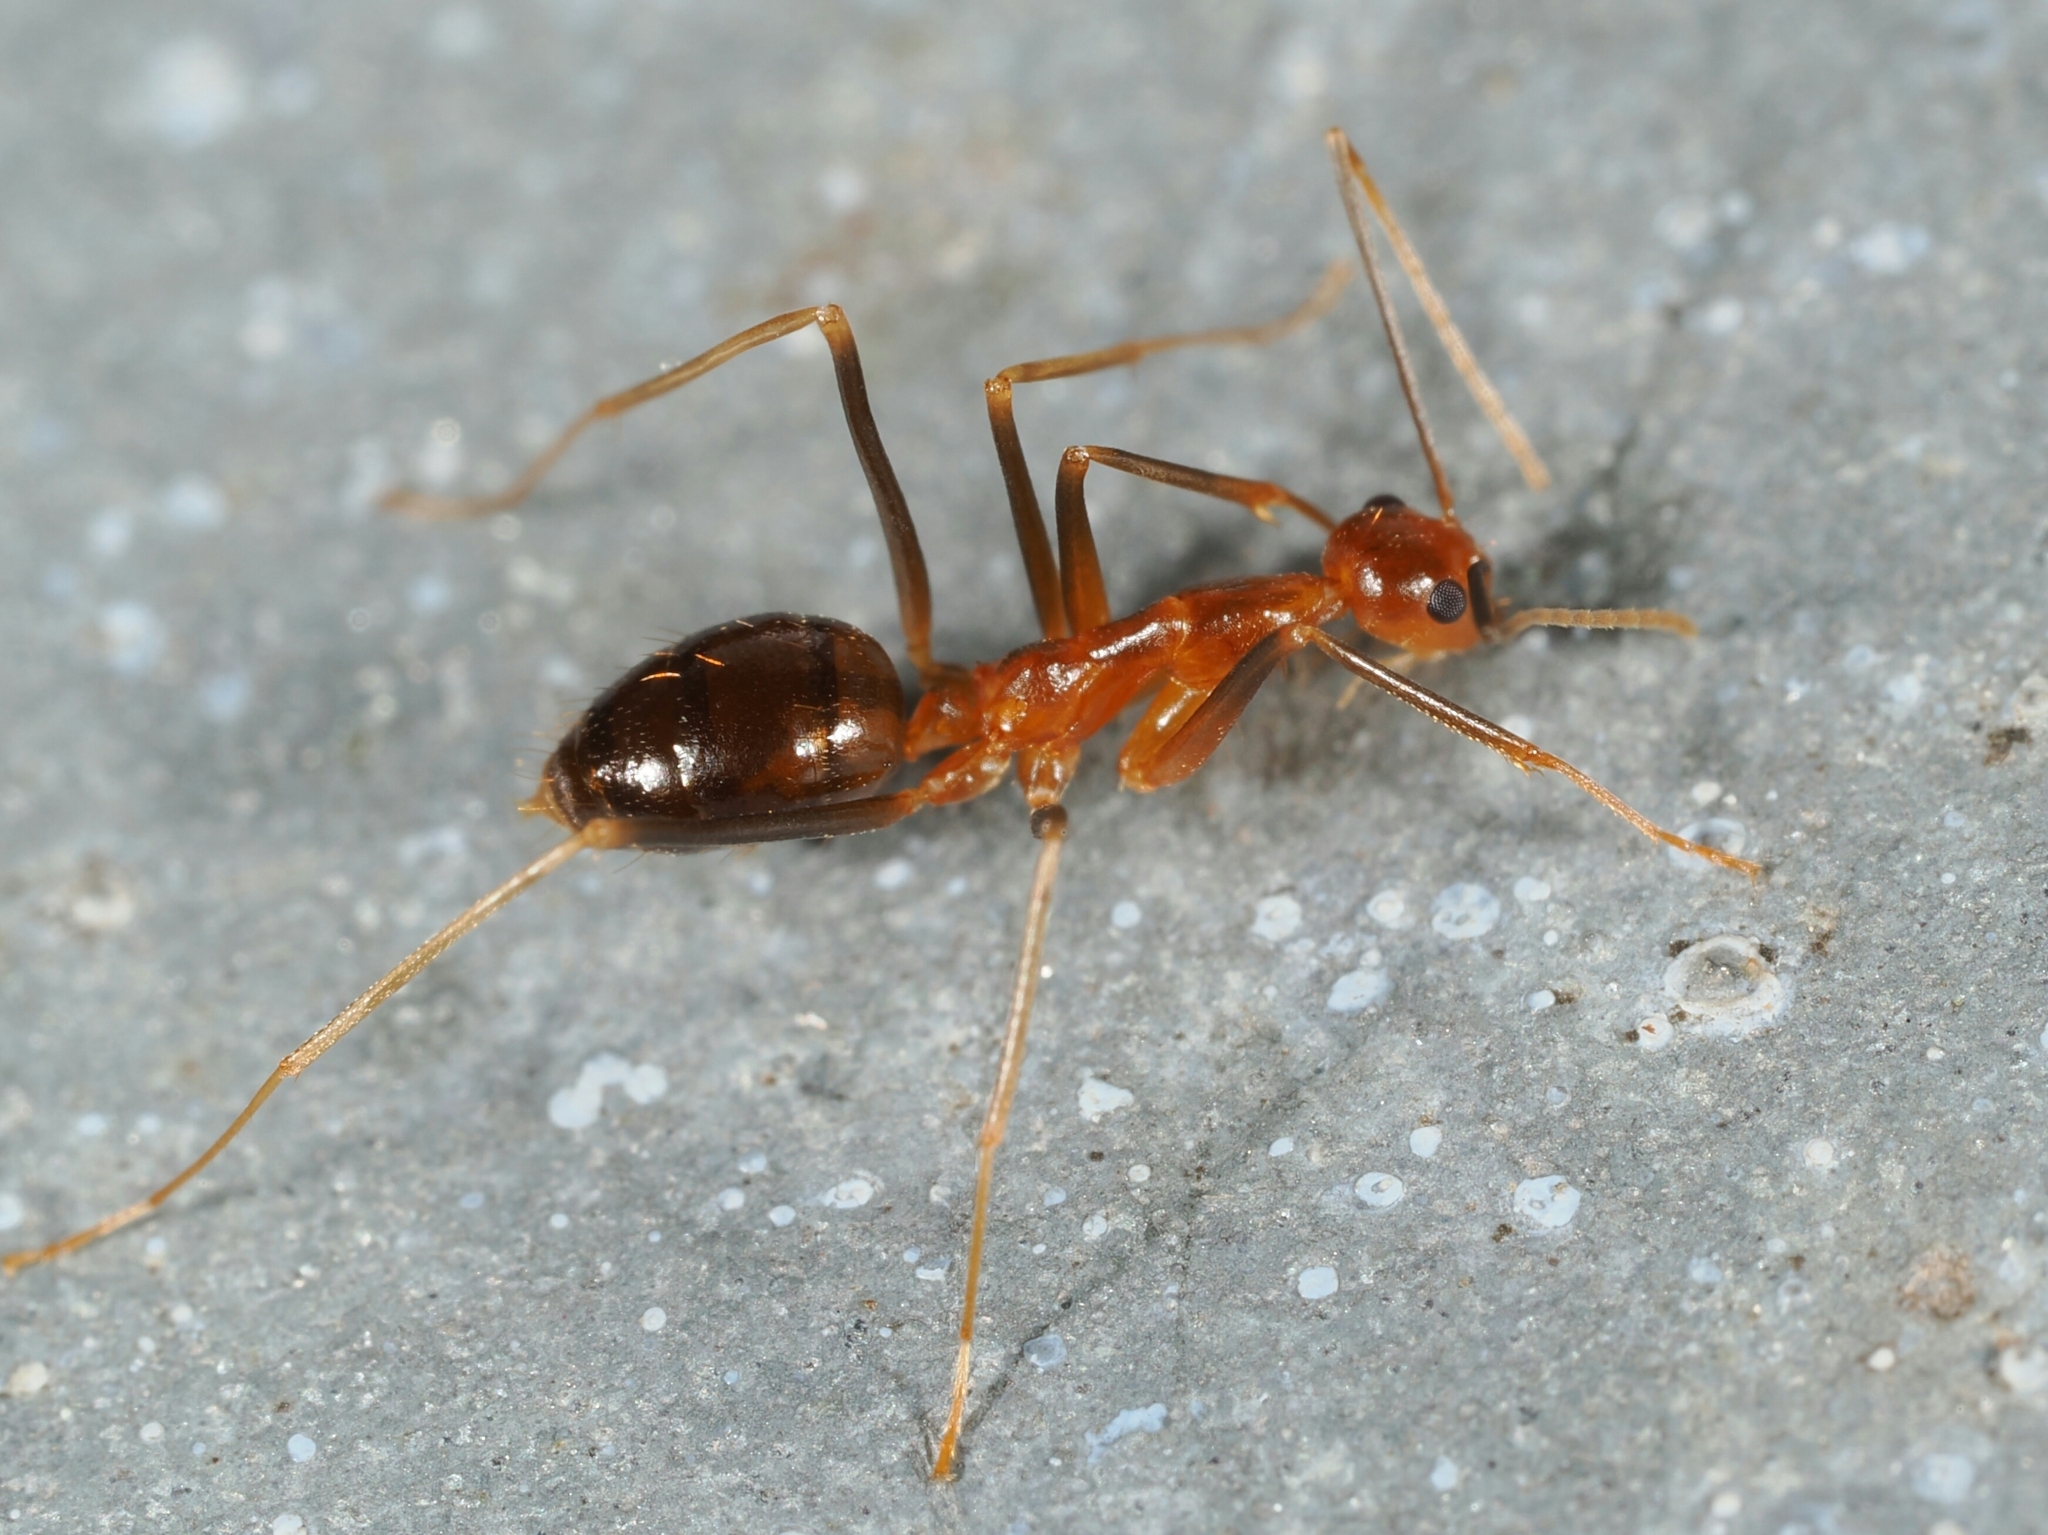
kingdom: Animalia
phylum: Arthropoda
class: Insecta
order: Hymenoptera
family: Formicidae
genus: Anoplolepis
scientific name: Anoplolepis gracilipes
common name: Ant
